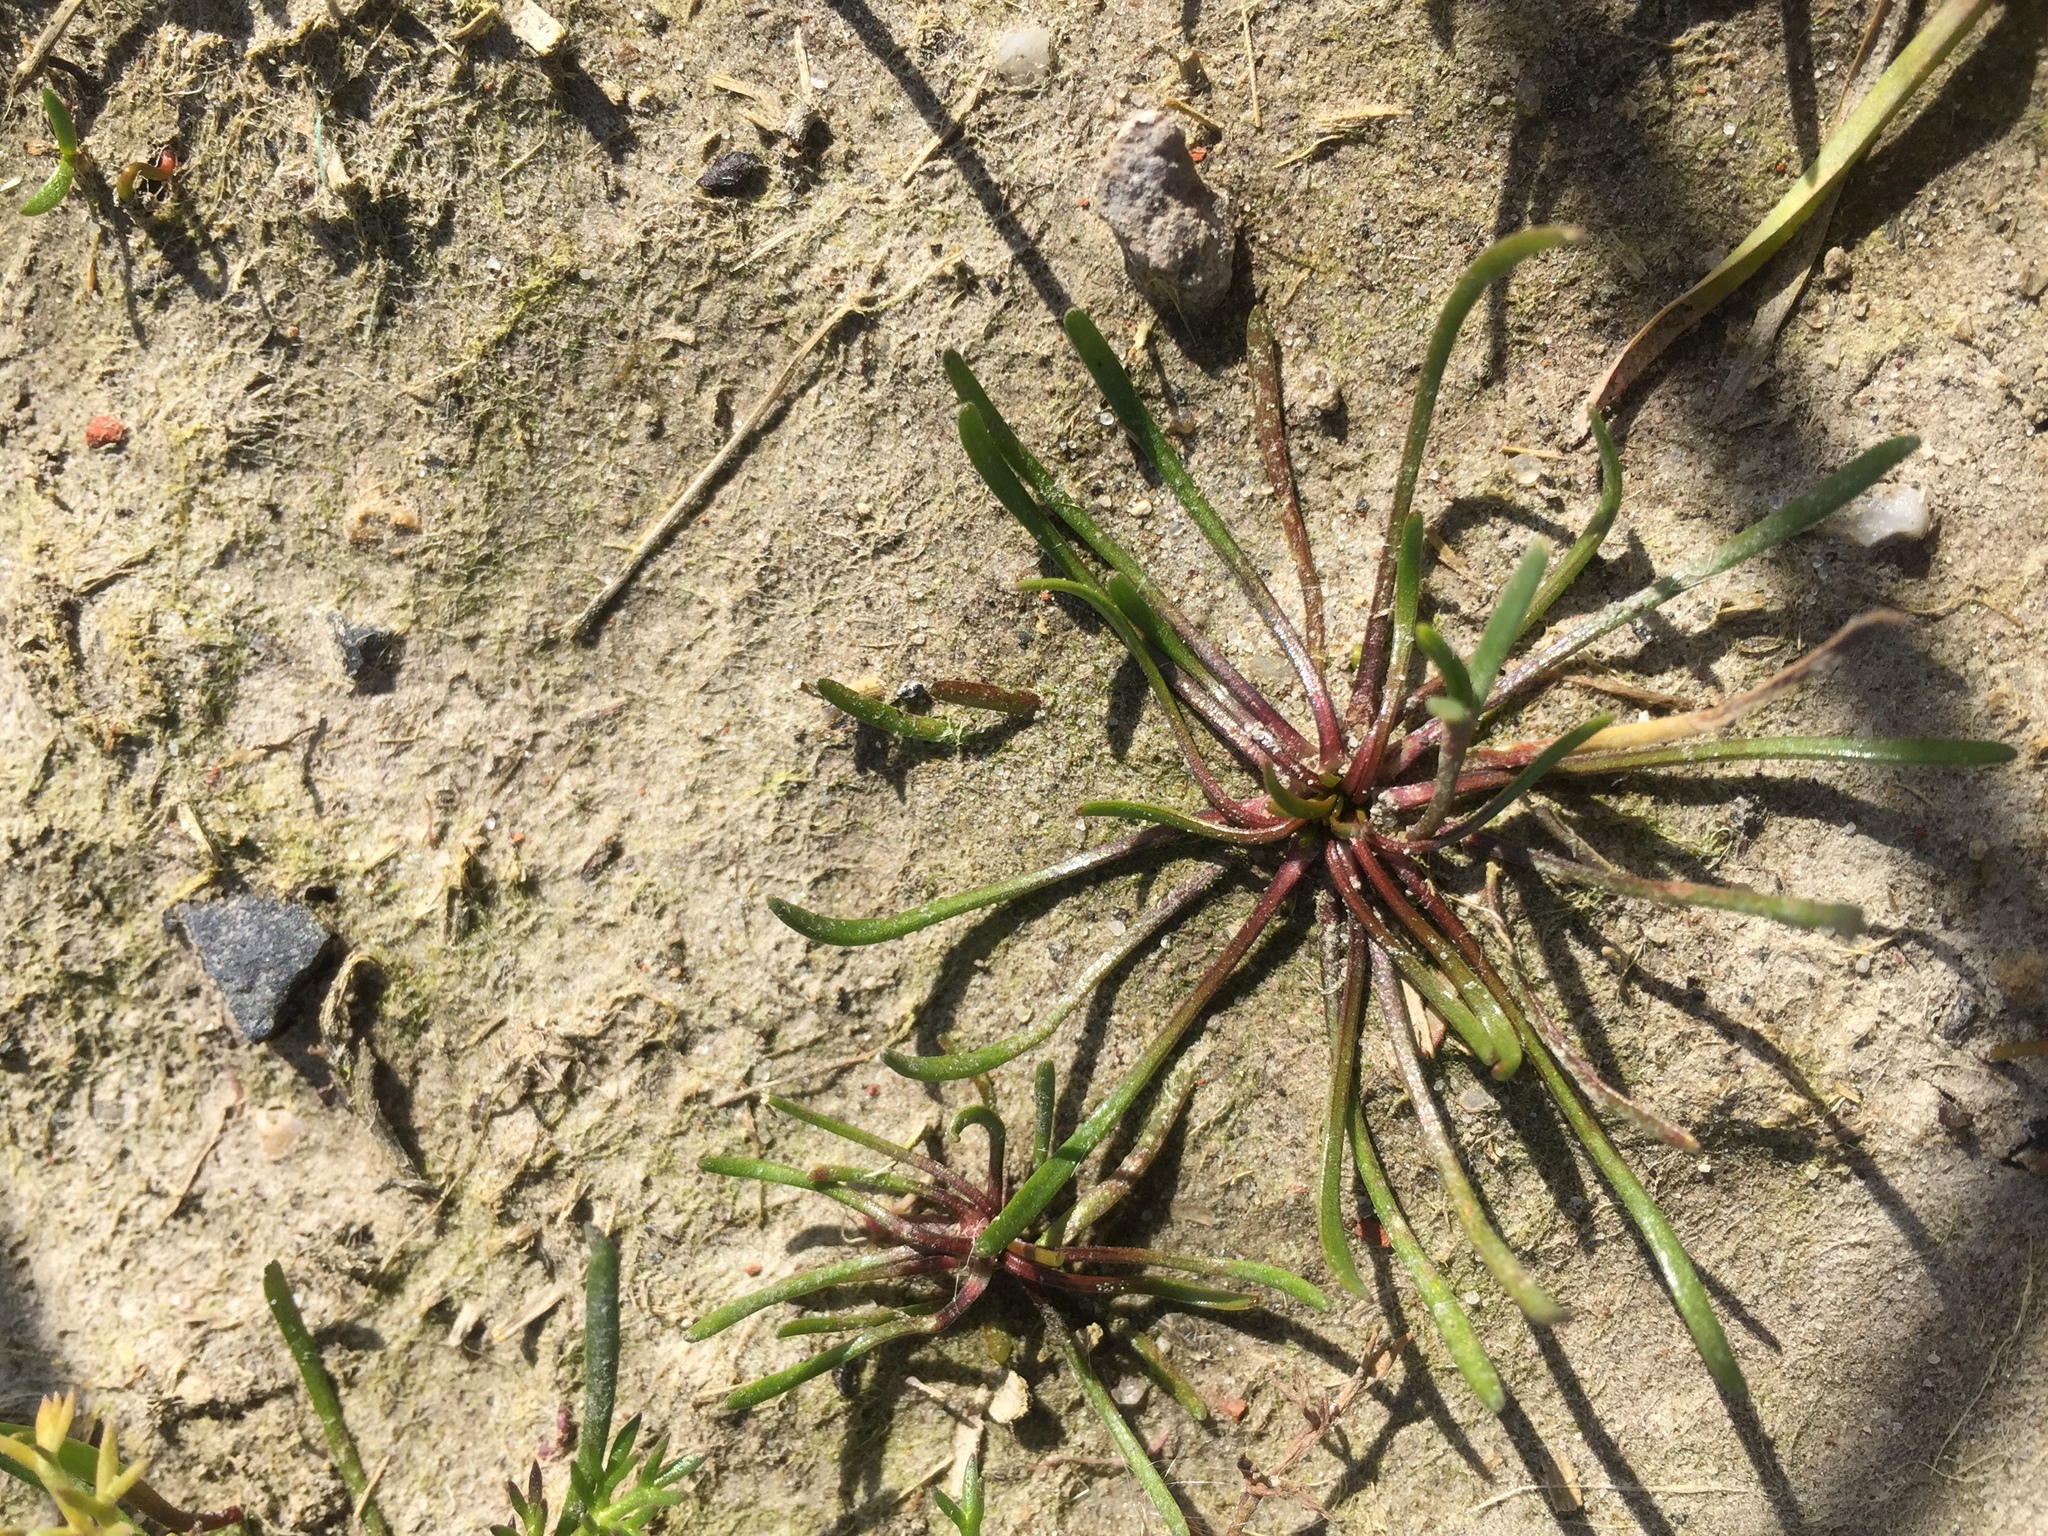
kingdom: Plantae
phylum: Tracheophyta
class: Magnoliopsida
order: Ranunculales
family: Ranunculaceae
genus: Myosurus
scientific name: Myosurus minimus
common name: Mousetail
